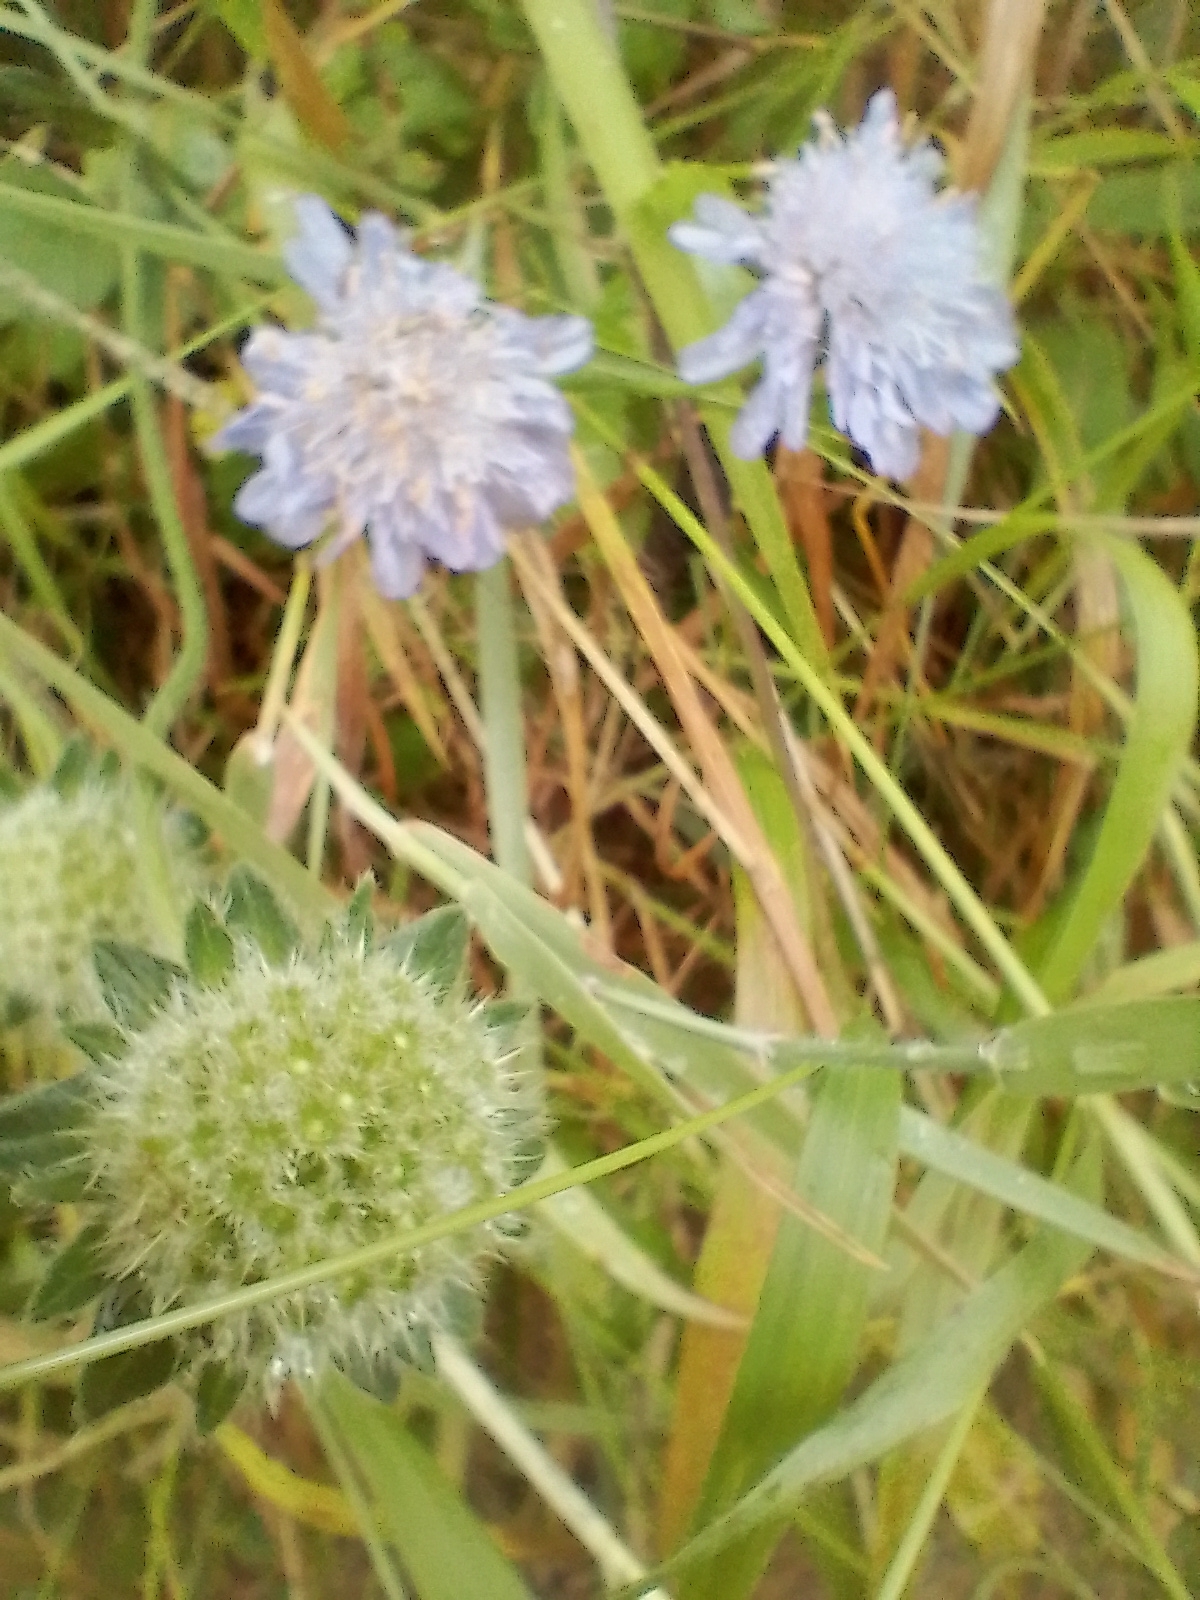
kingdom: Plantae
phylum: Tracheophyta
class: Magnoliopsida
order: Dipsacales
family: Caprifoliaceae
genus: Knautia
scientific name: Knautia arvensis
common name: Field scabiosa
